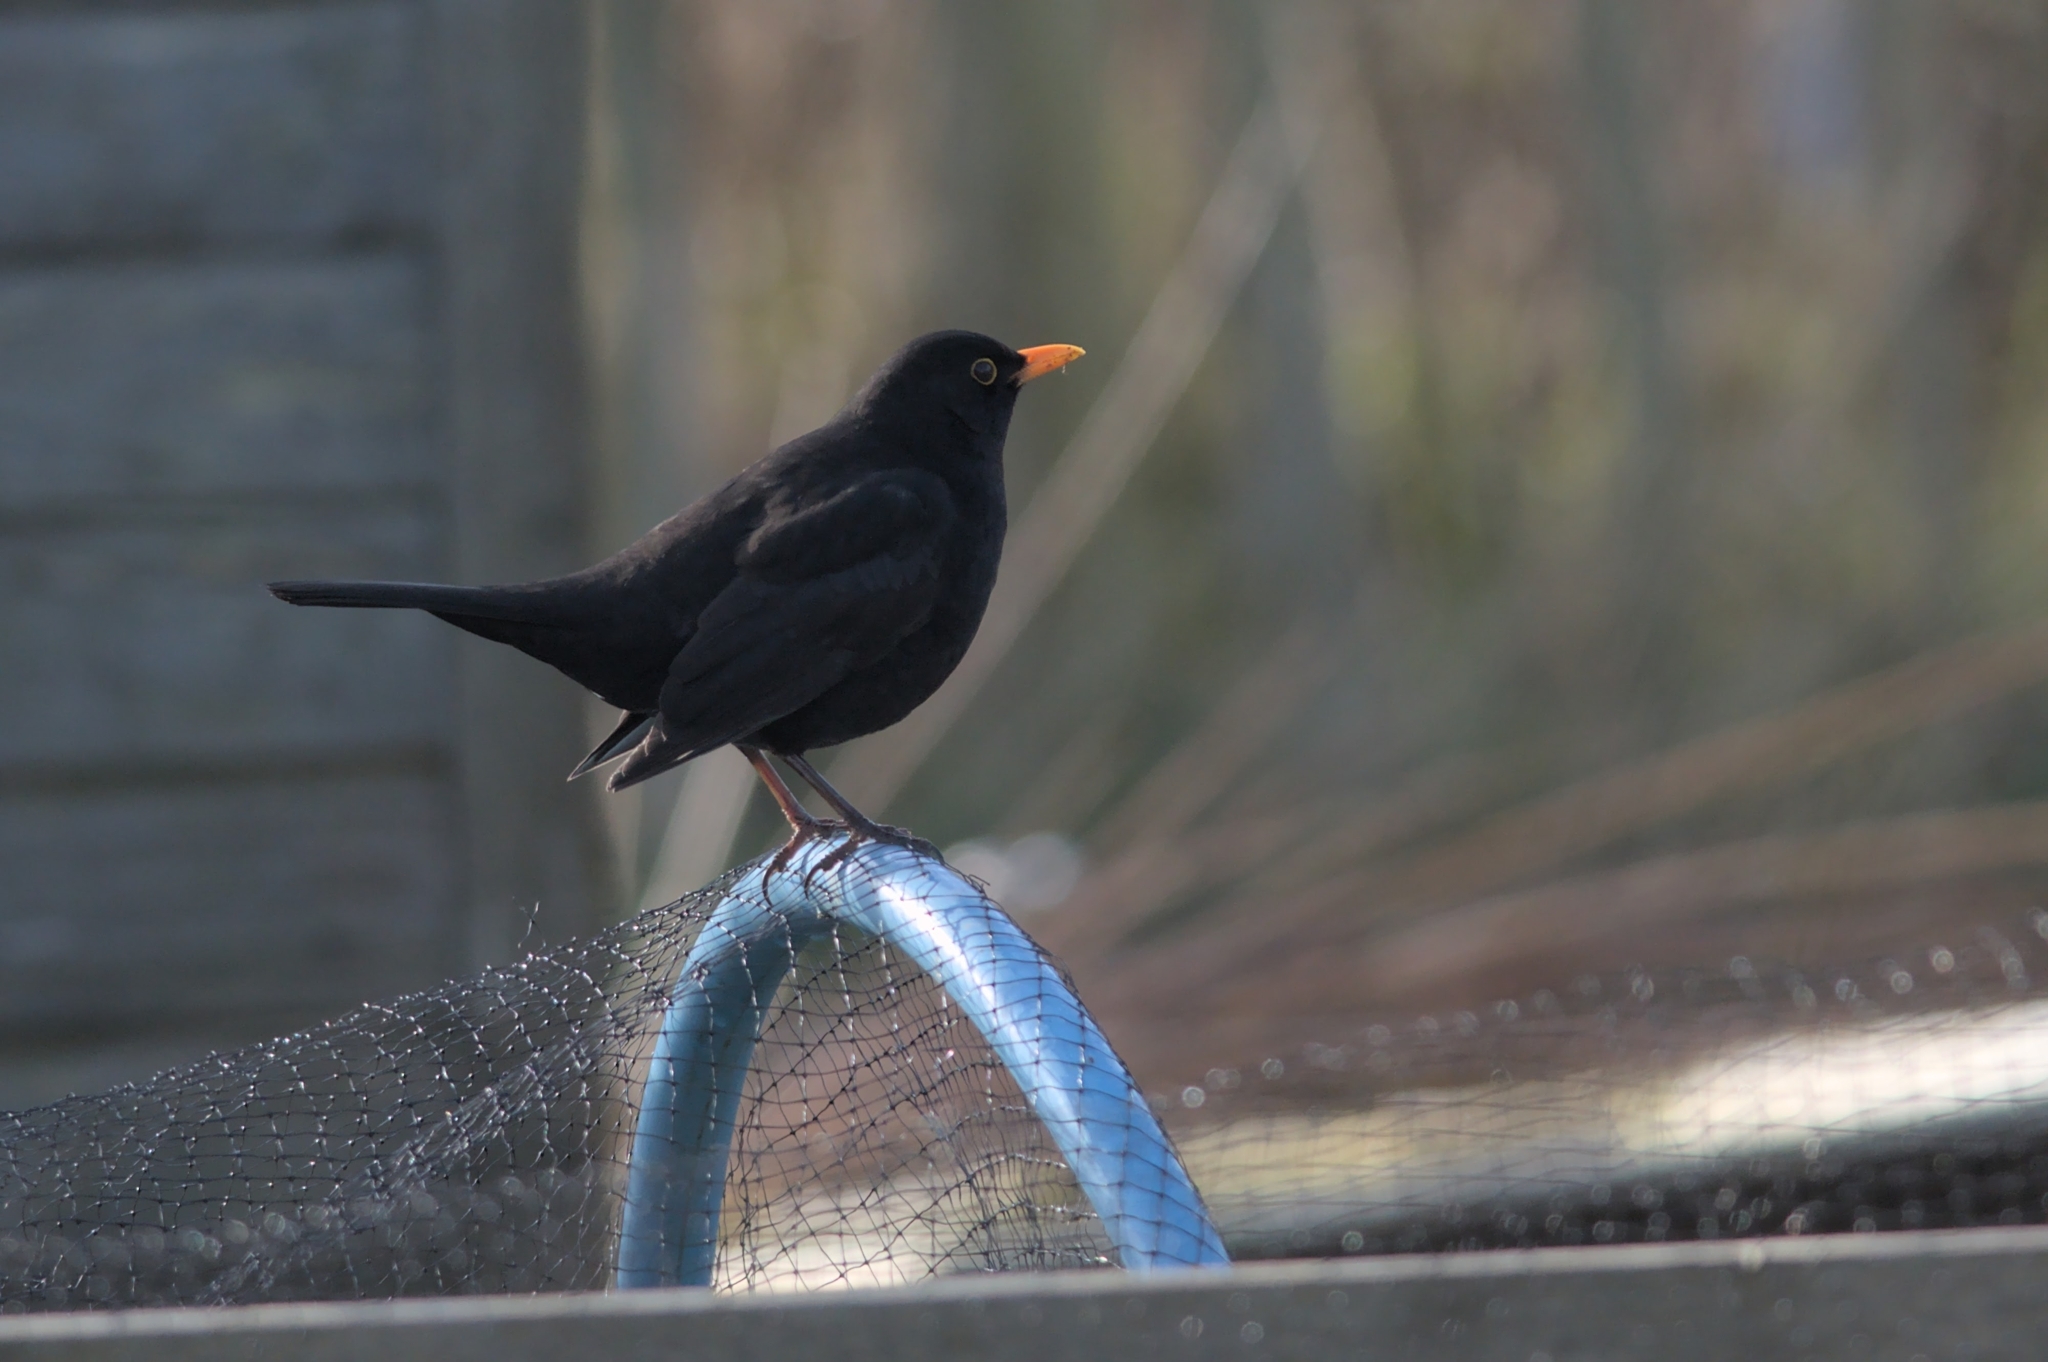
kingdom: Animalia
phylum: Chordata
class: Aves
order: Passeriformes
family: Turdidae
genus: Turdus
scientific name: Turdus merula
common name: Common blackbird
